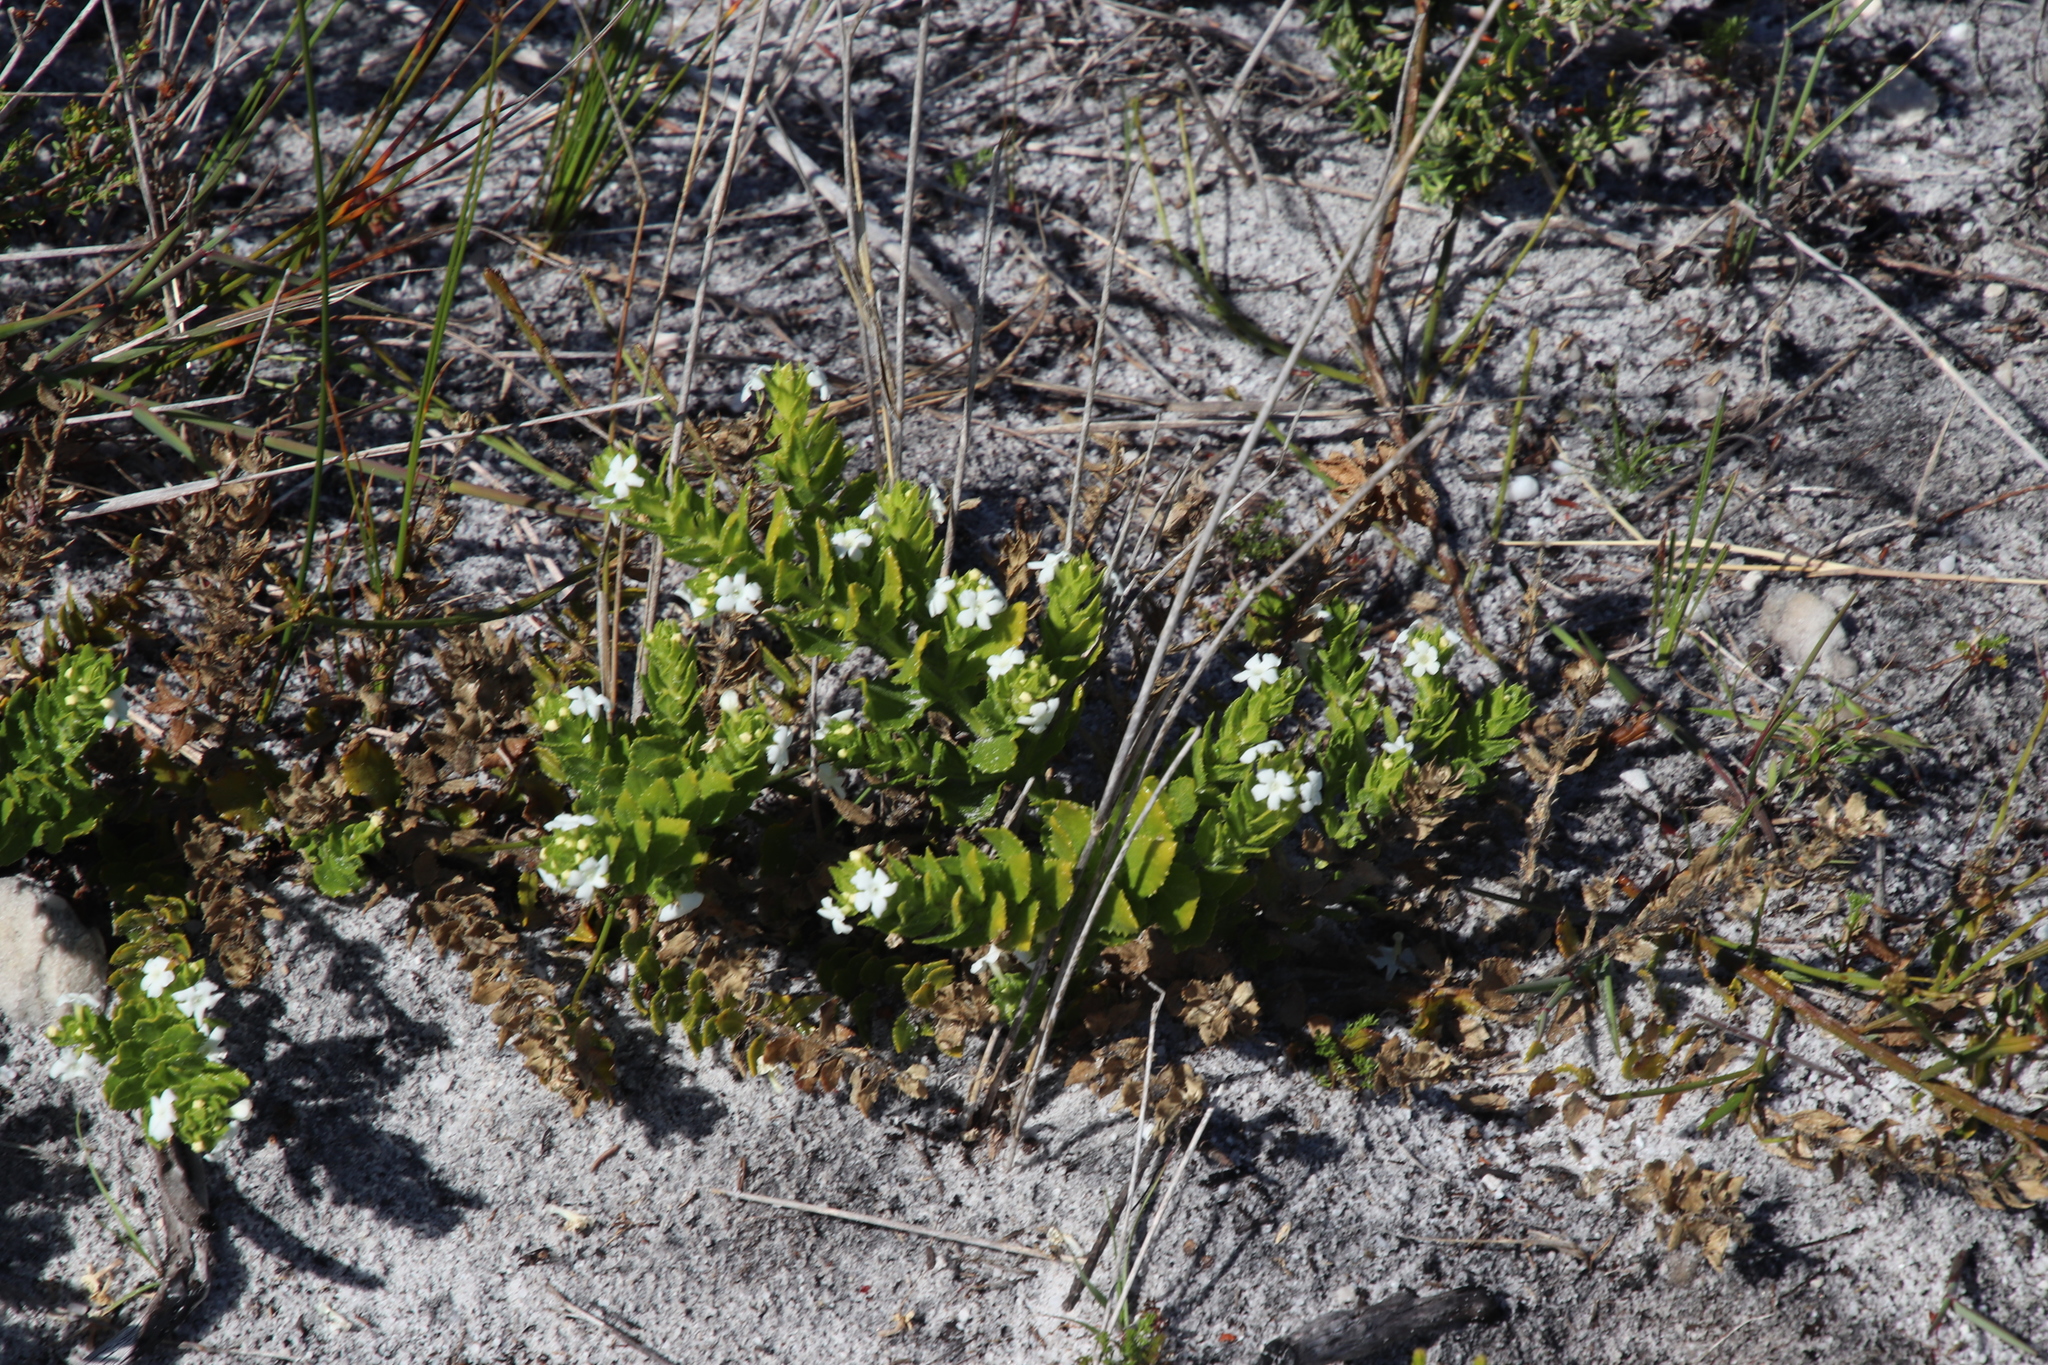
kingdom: Plantae
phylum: Tracheophyta
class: Magnoliopsida
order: Lamiales
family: Scrophulariaceae
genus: Oftia
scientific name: Oftia africana
